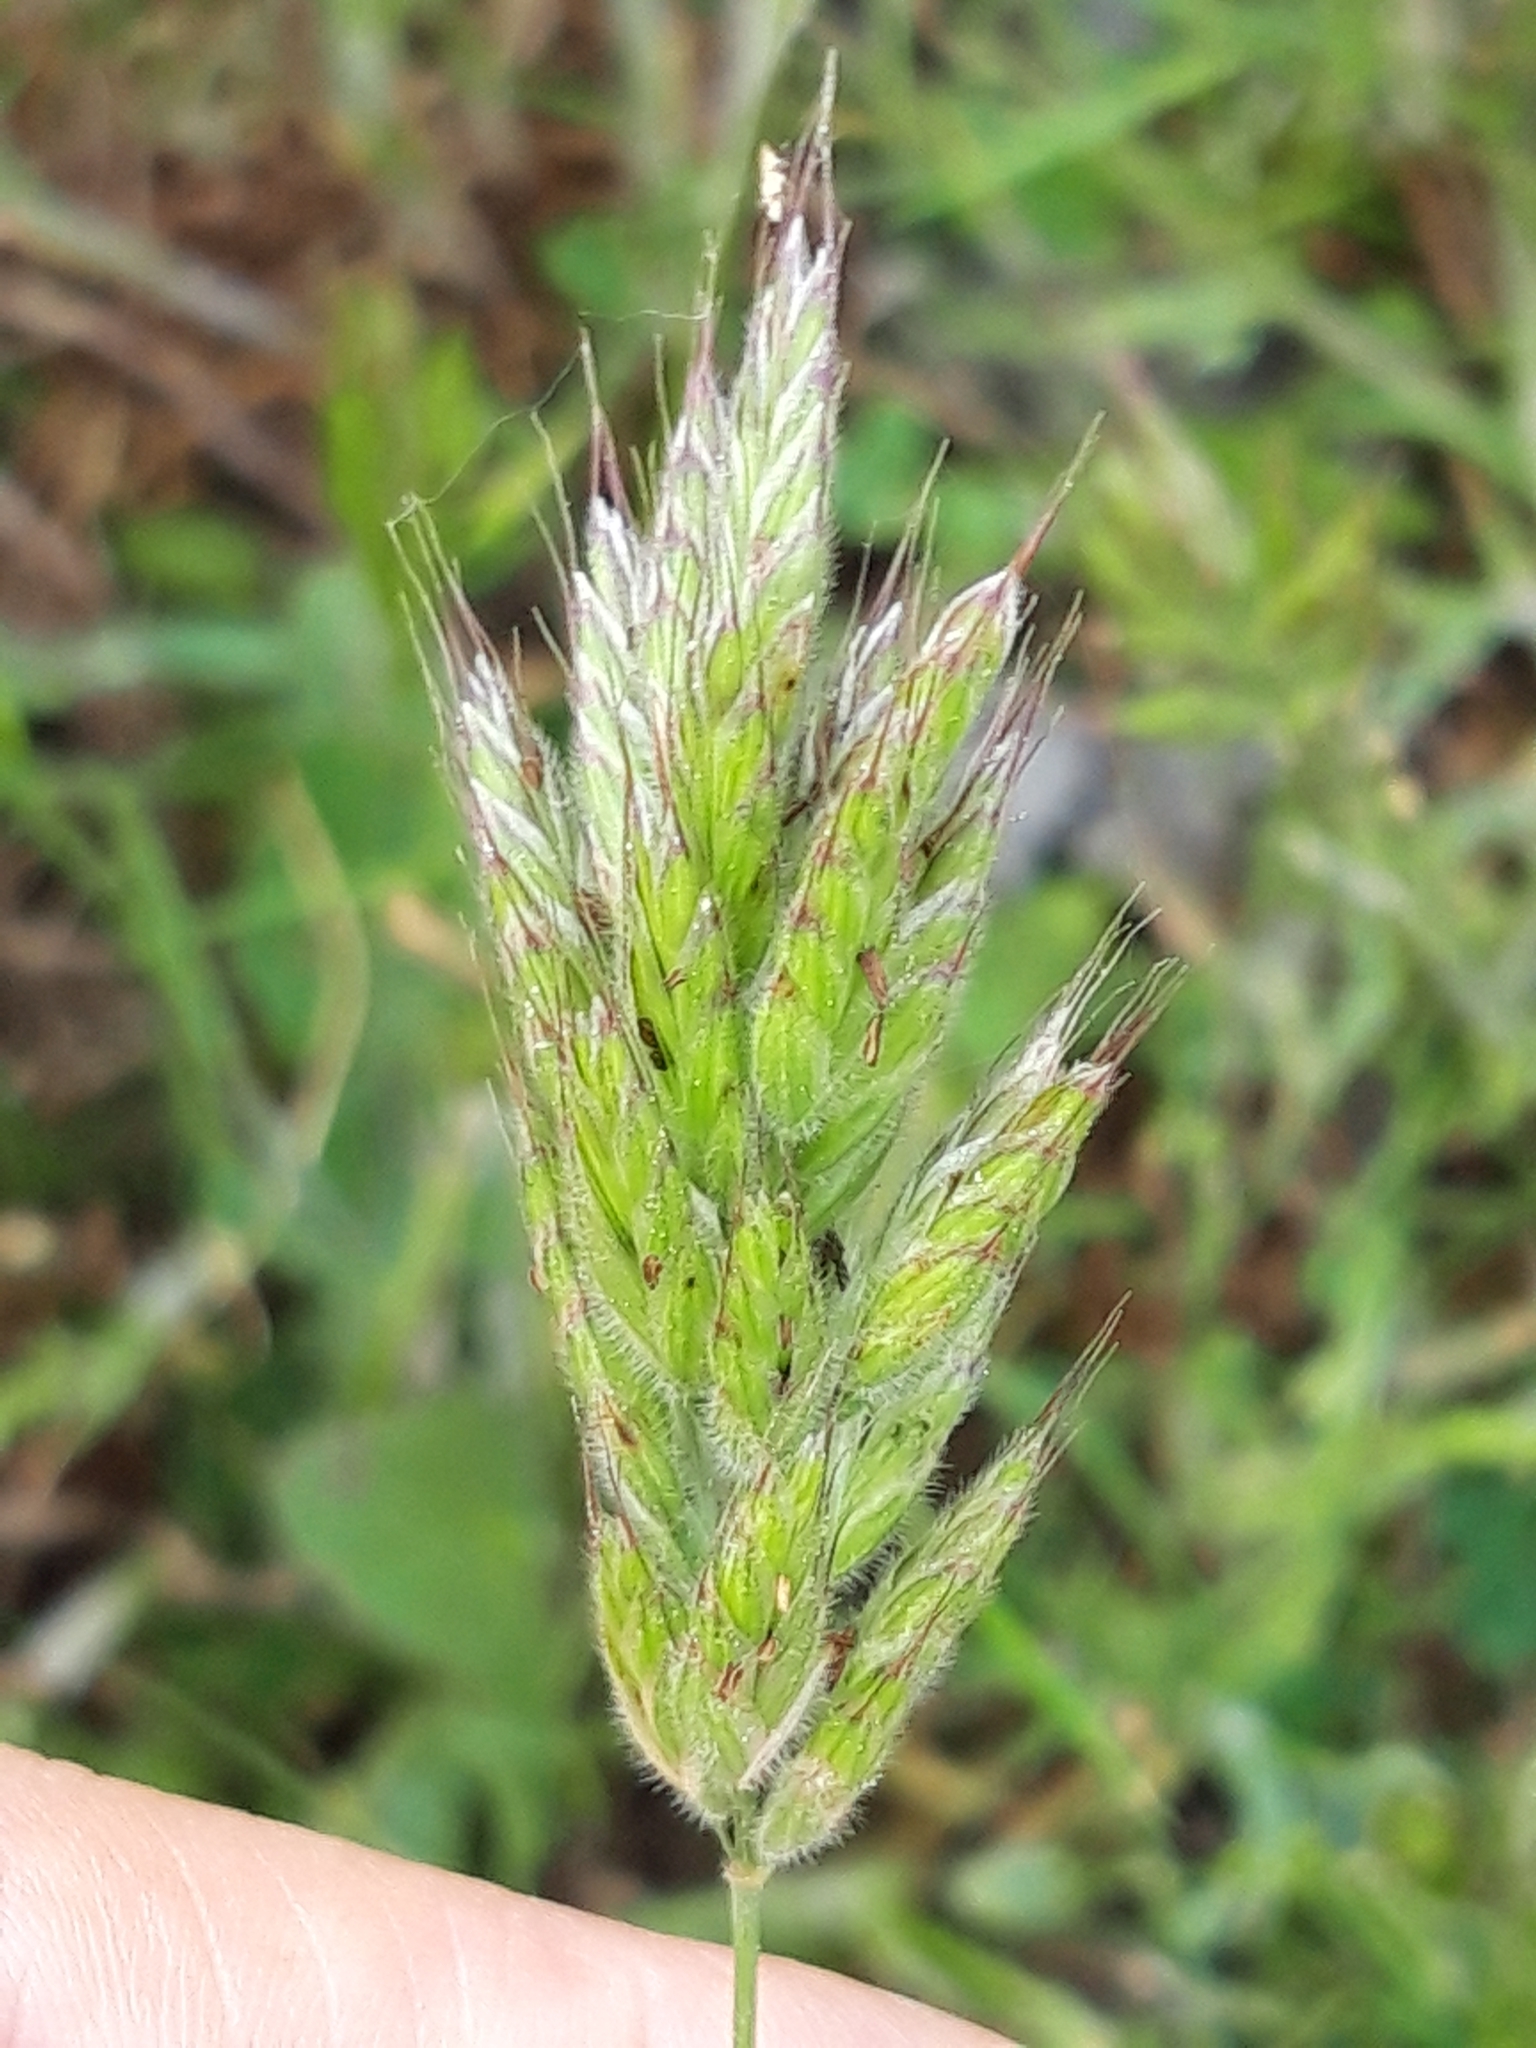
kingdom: Plantae
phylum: Tracheophyta
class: Liliopsida
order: Poales
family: Poaceae
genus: Bromus
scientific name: Bromus hordeaceus
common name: Soft brome
